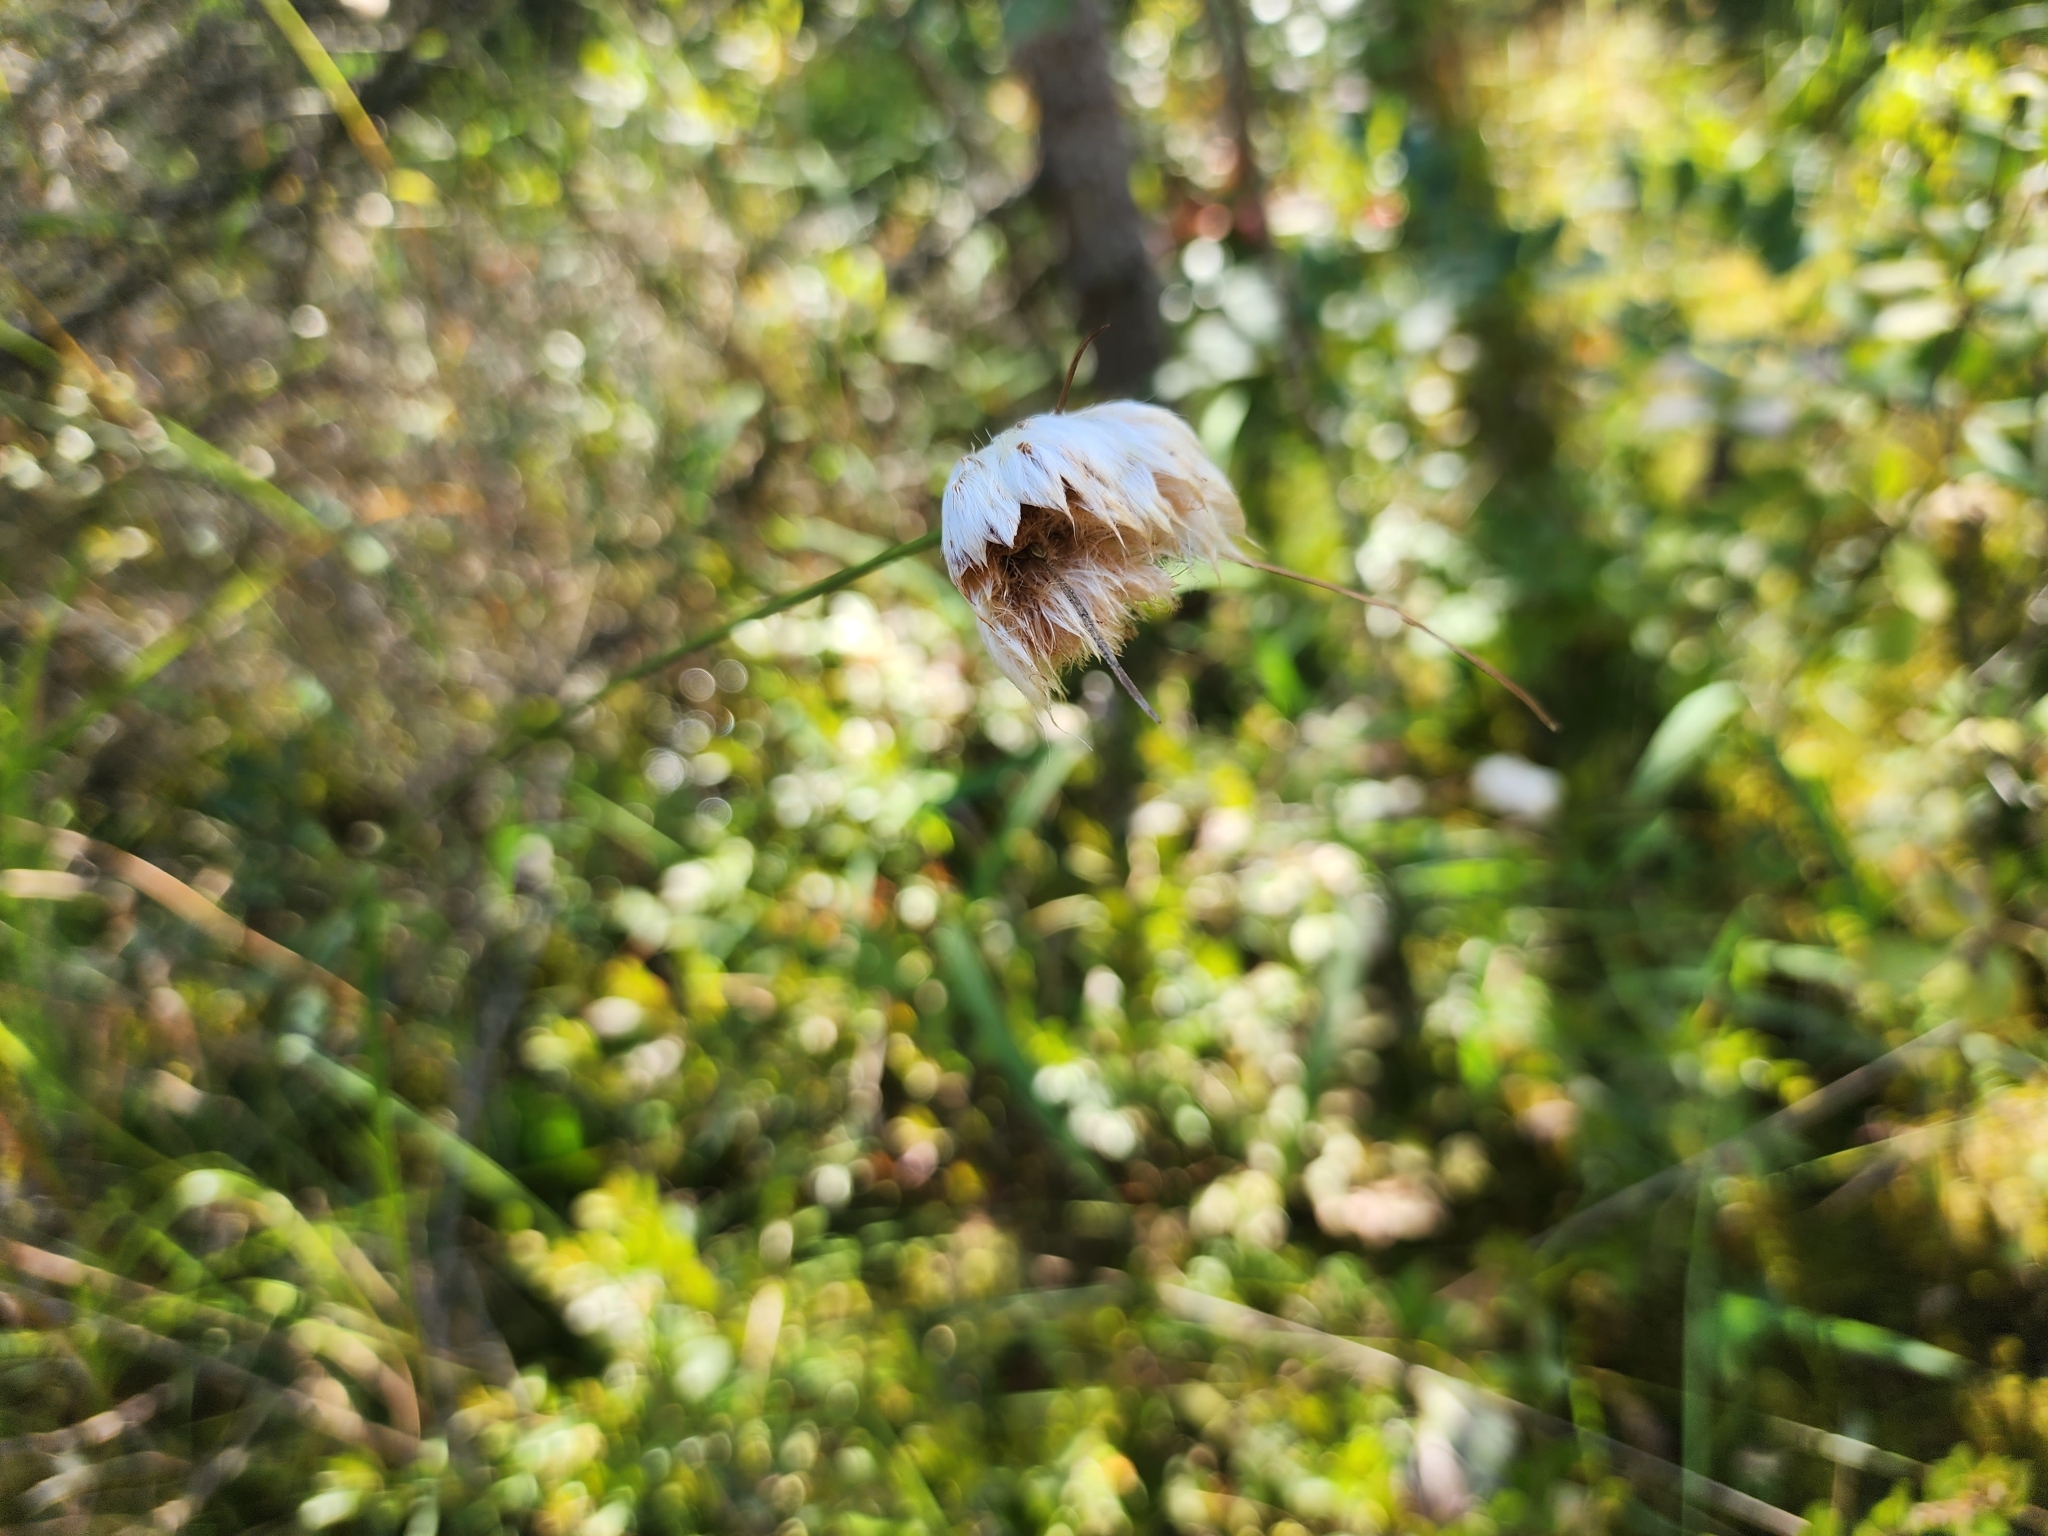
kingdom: Plantae
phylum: Tracheophyta
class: Liliopsida
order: Poales
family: Cyperaceae
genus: Eriophorum
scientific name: Eriophorum virginicum
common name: Tawny cottongrass
